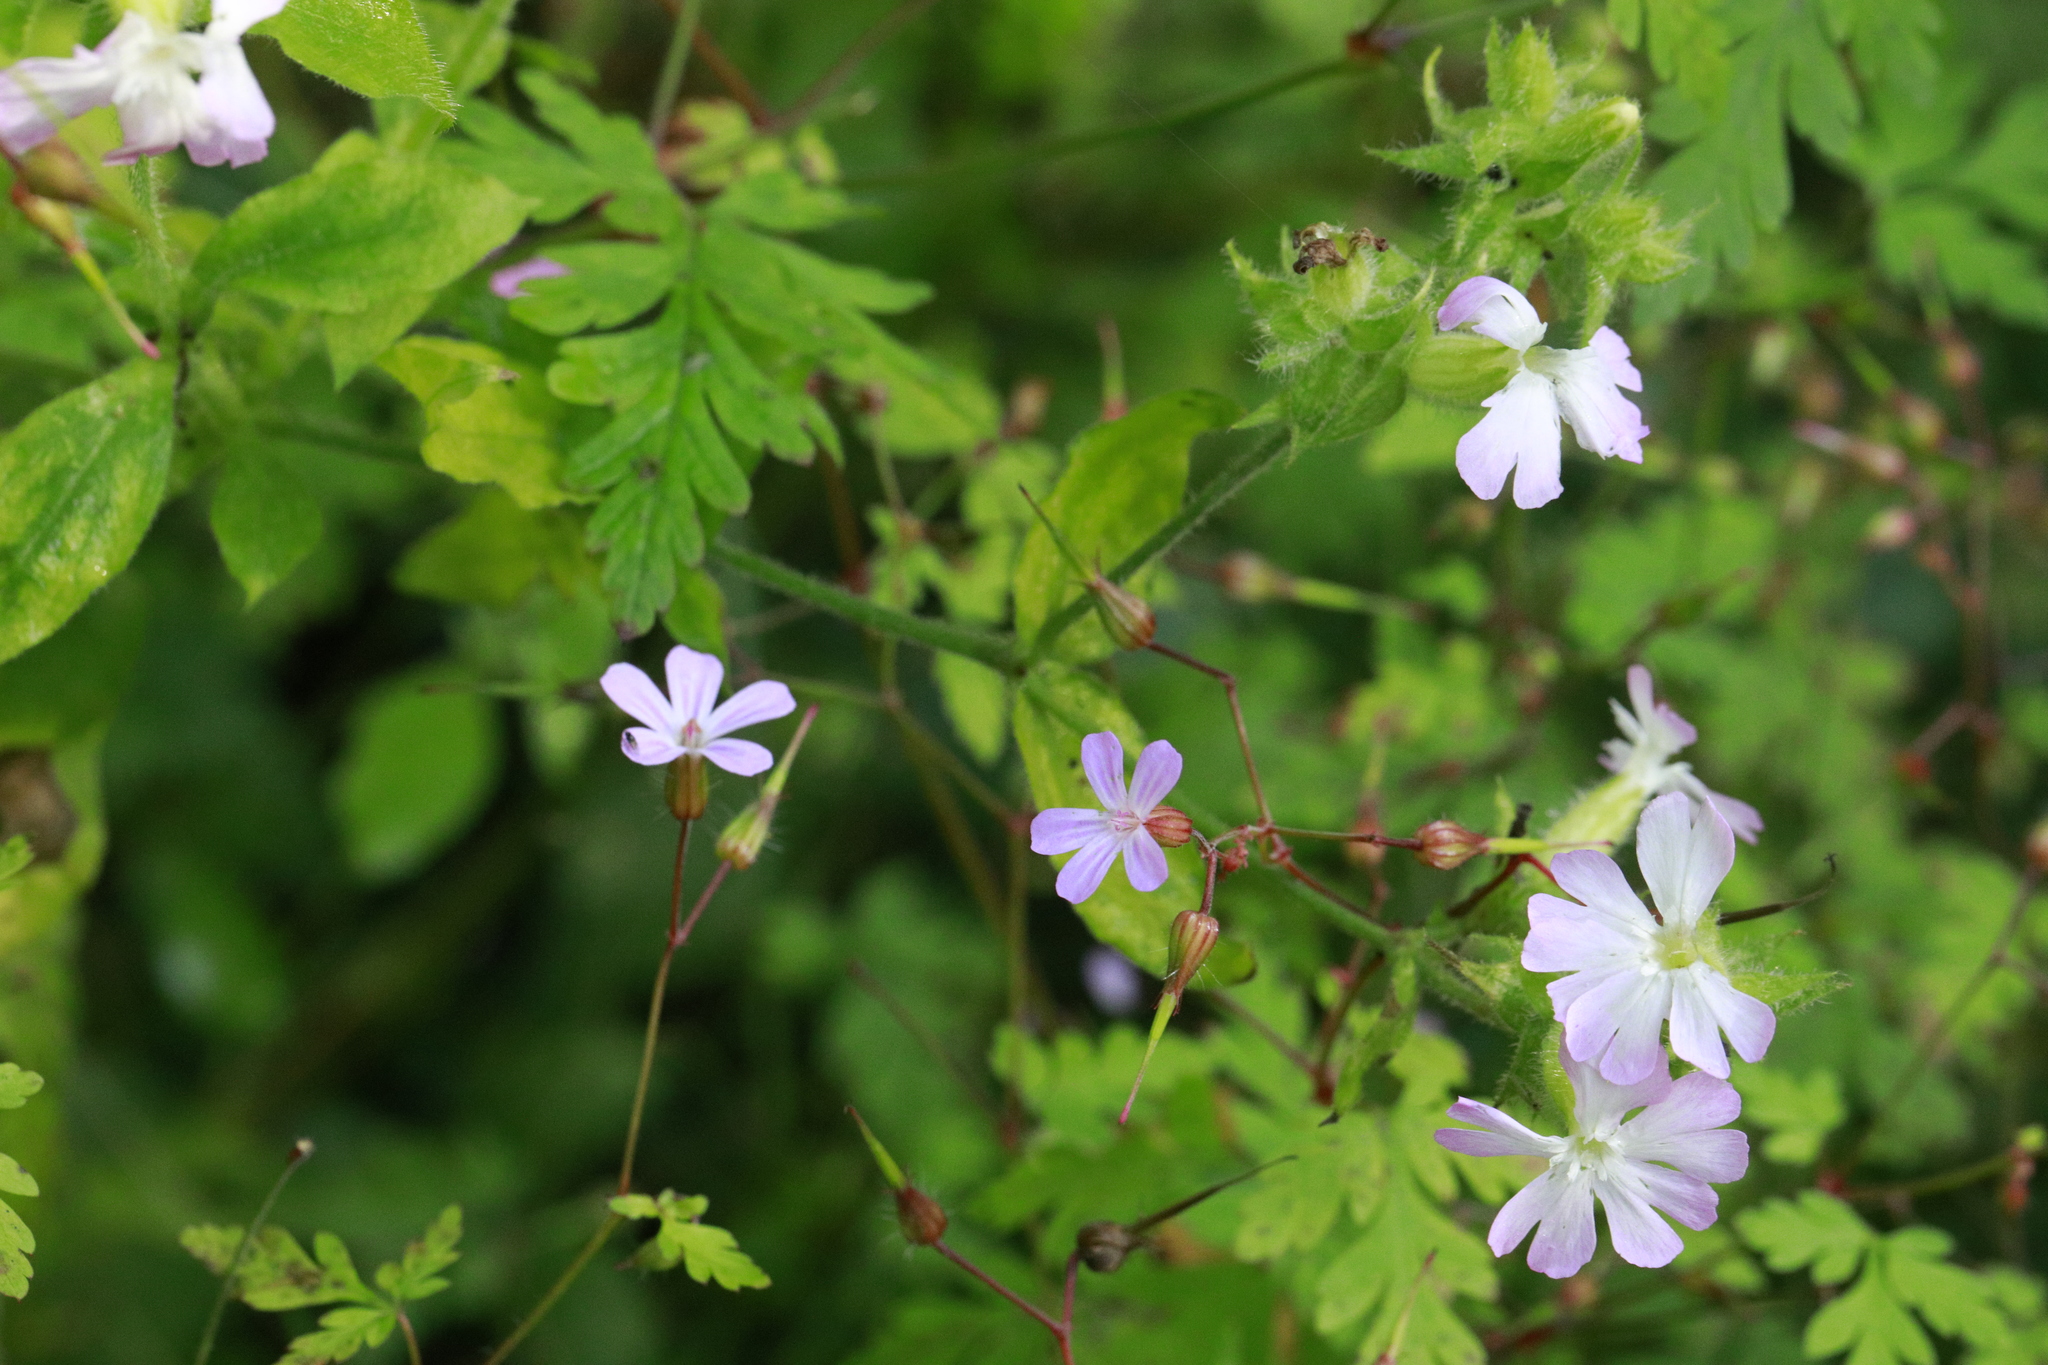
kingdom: Plantae
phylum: Tracheophyta
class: Magnoliopsida
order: Caryophyllales
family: Caryophyllaceae
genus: Silene
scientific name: Silene hampeana
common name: Catchfly
